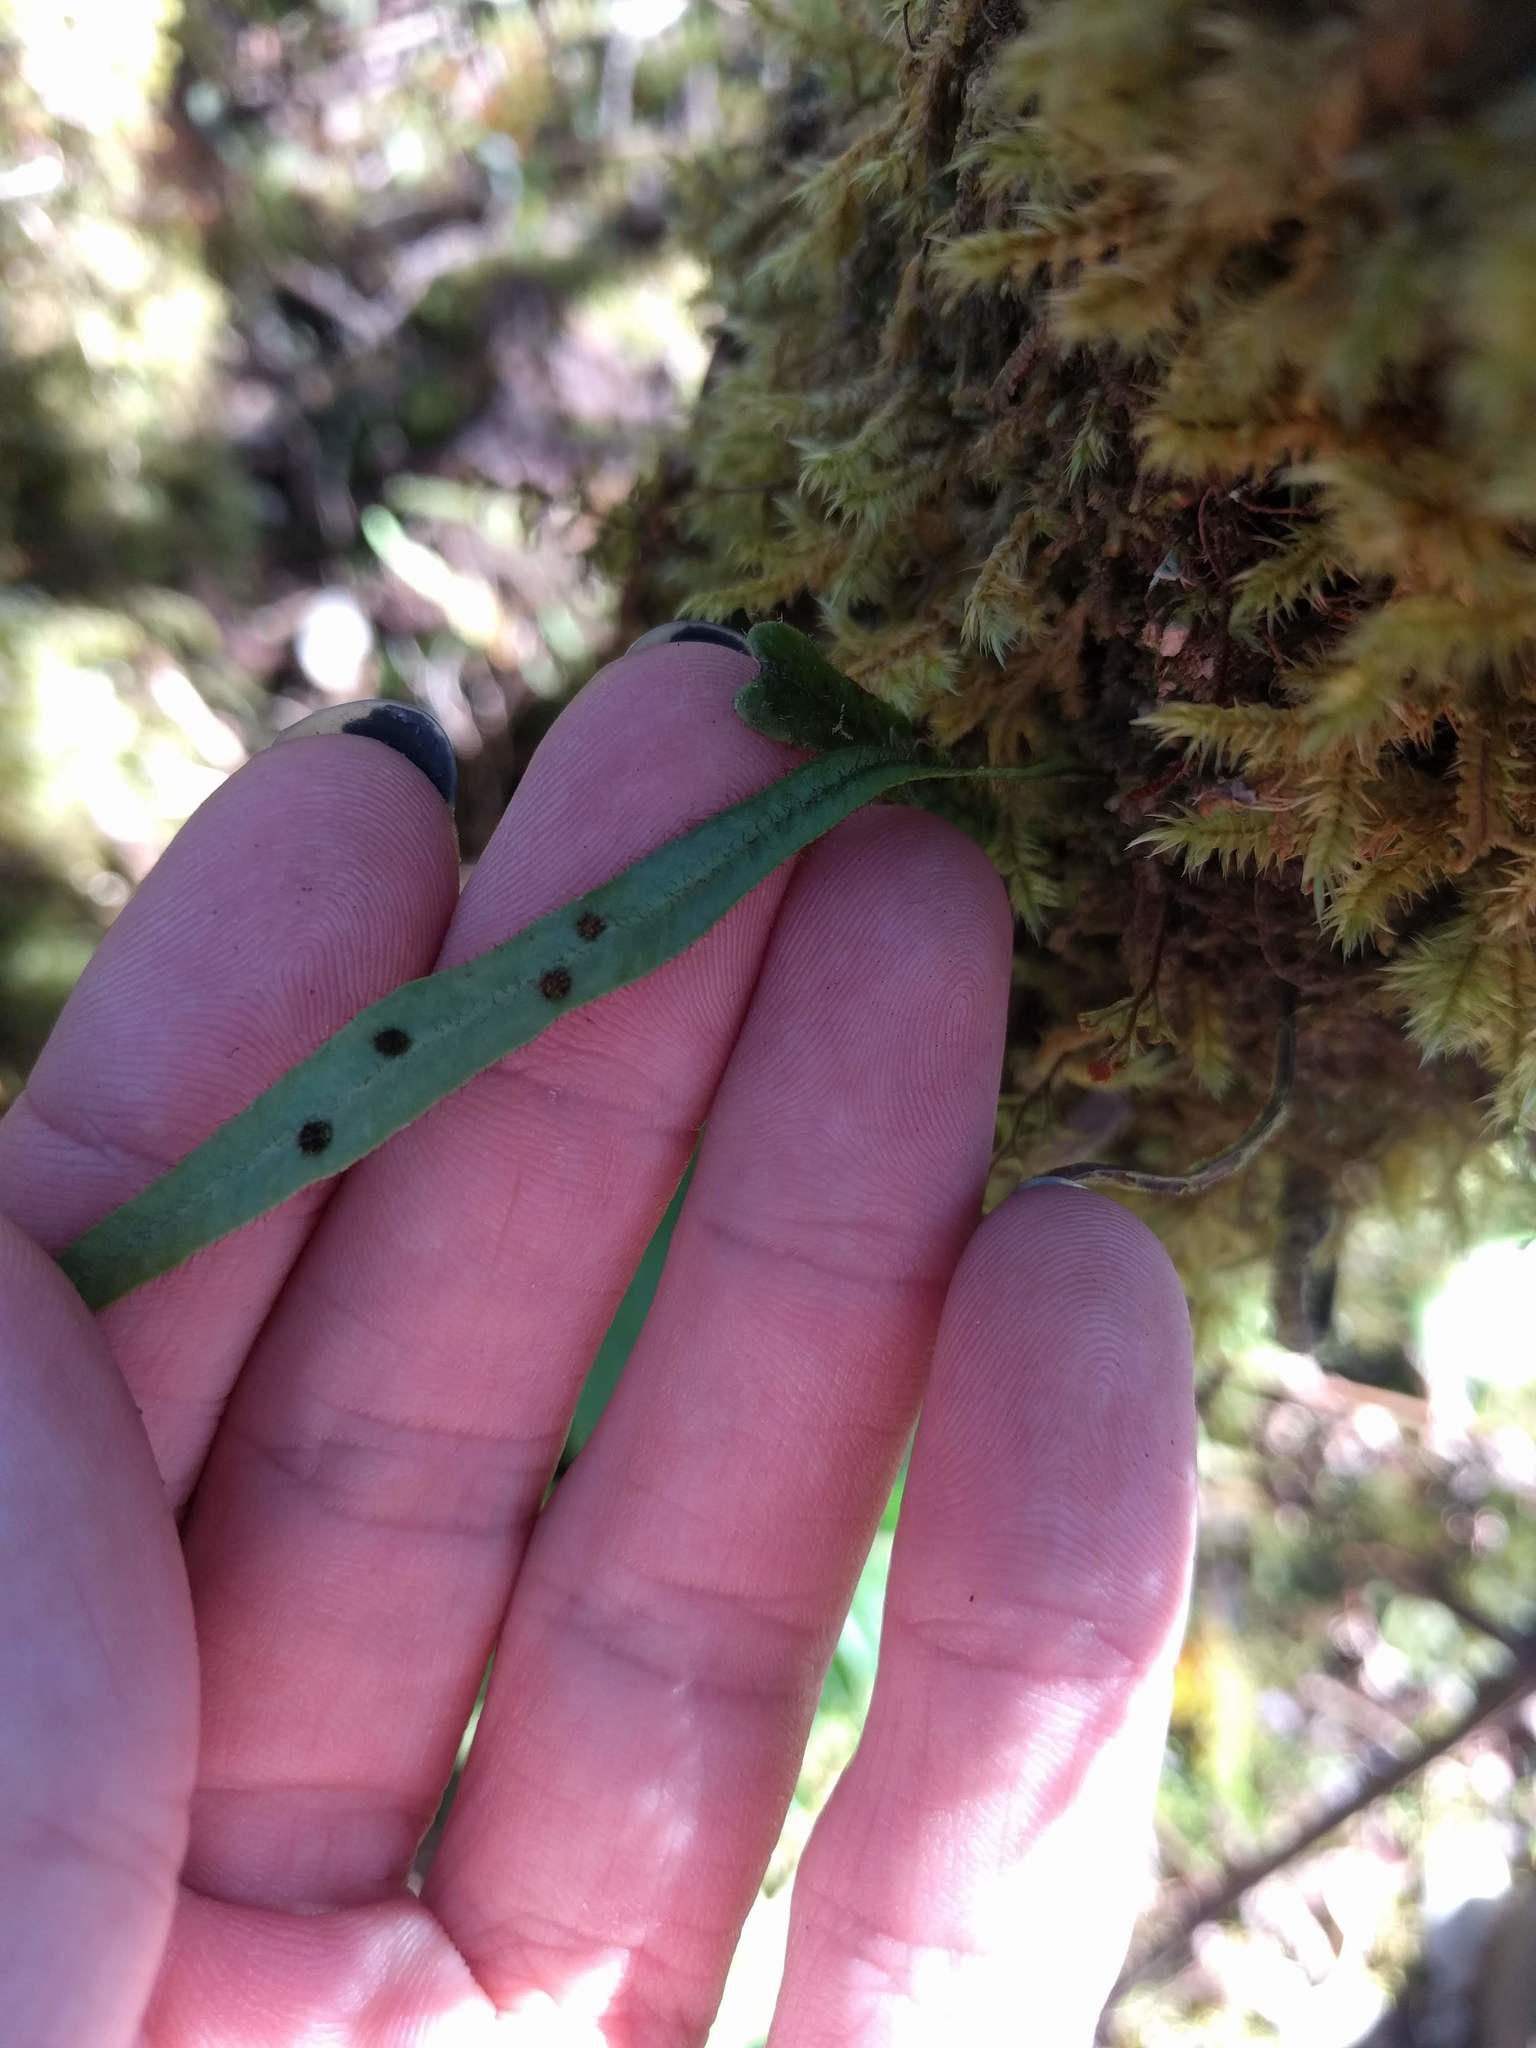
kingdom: Plantae
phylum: Tracheophyta
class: Polypodiopsida
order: Polypodiales
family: Polypodiaceae
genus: Lepisorus
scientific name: Lepisorus thunbergianus
